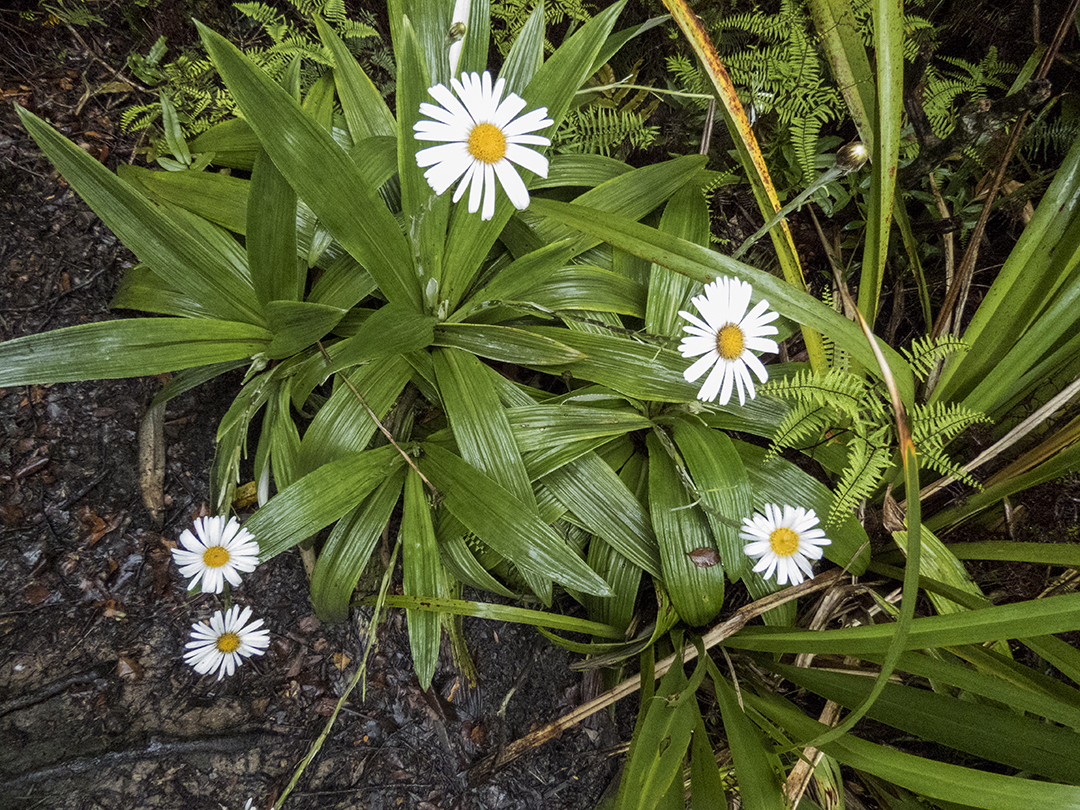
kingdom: Plantae
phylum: Tracheophyta
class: Magnoliopsida
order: Asterales
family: Asteraceae
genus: Celmisia
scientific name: Celmisia semicordata
